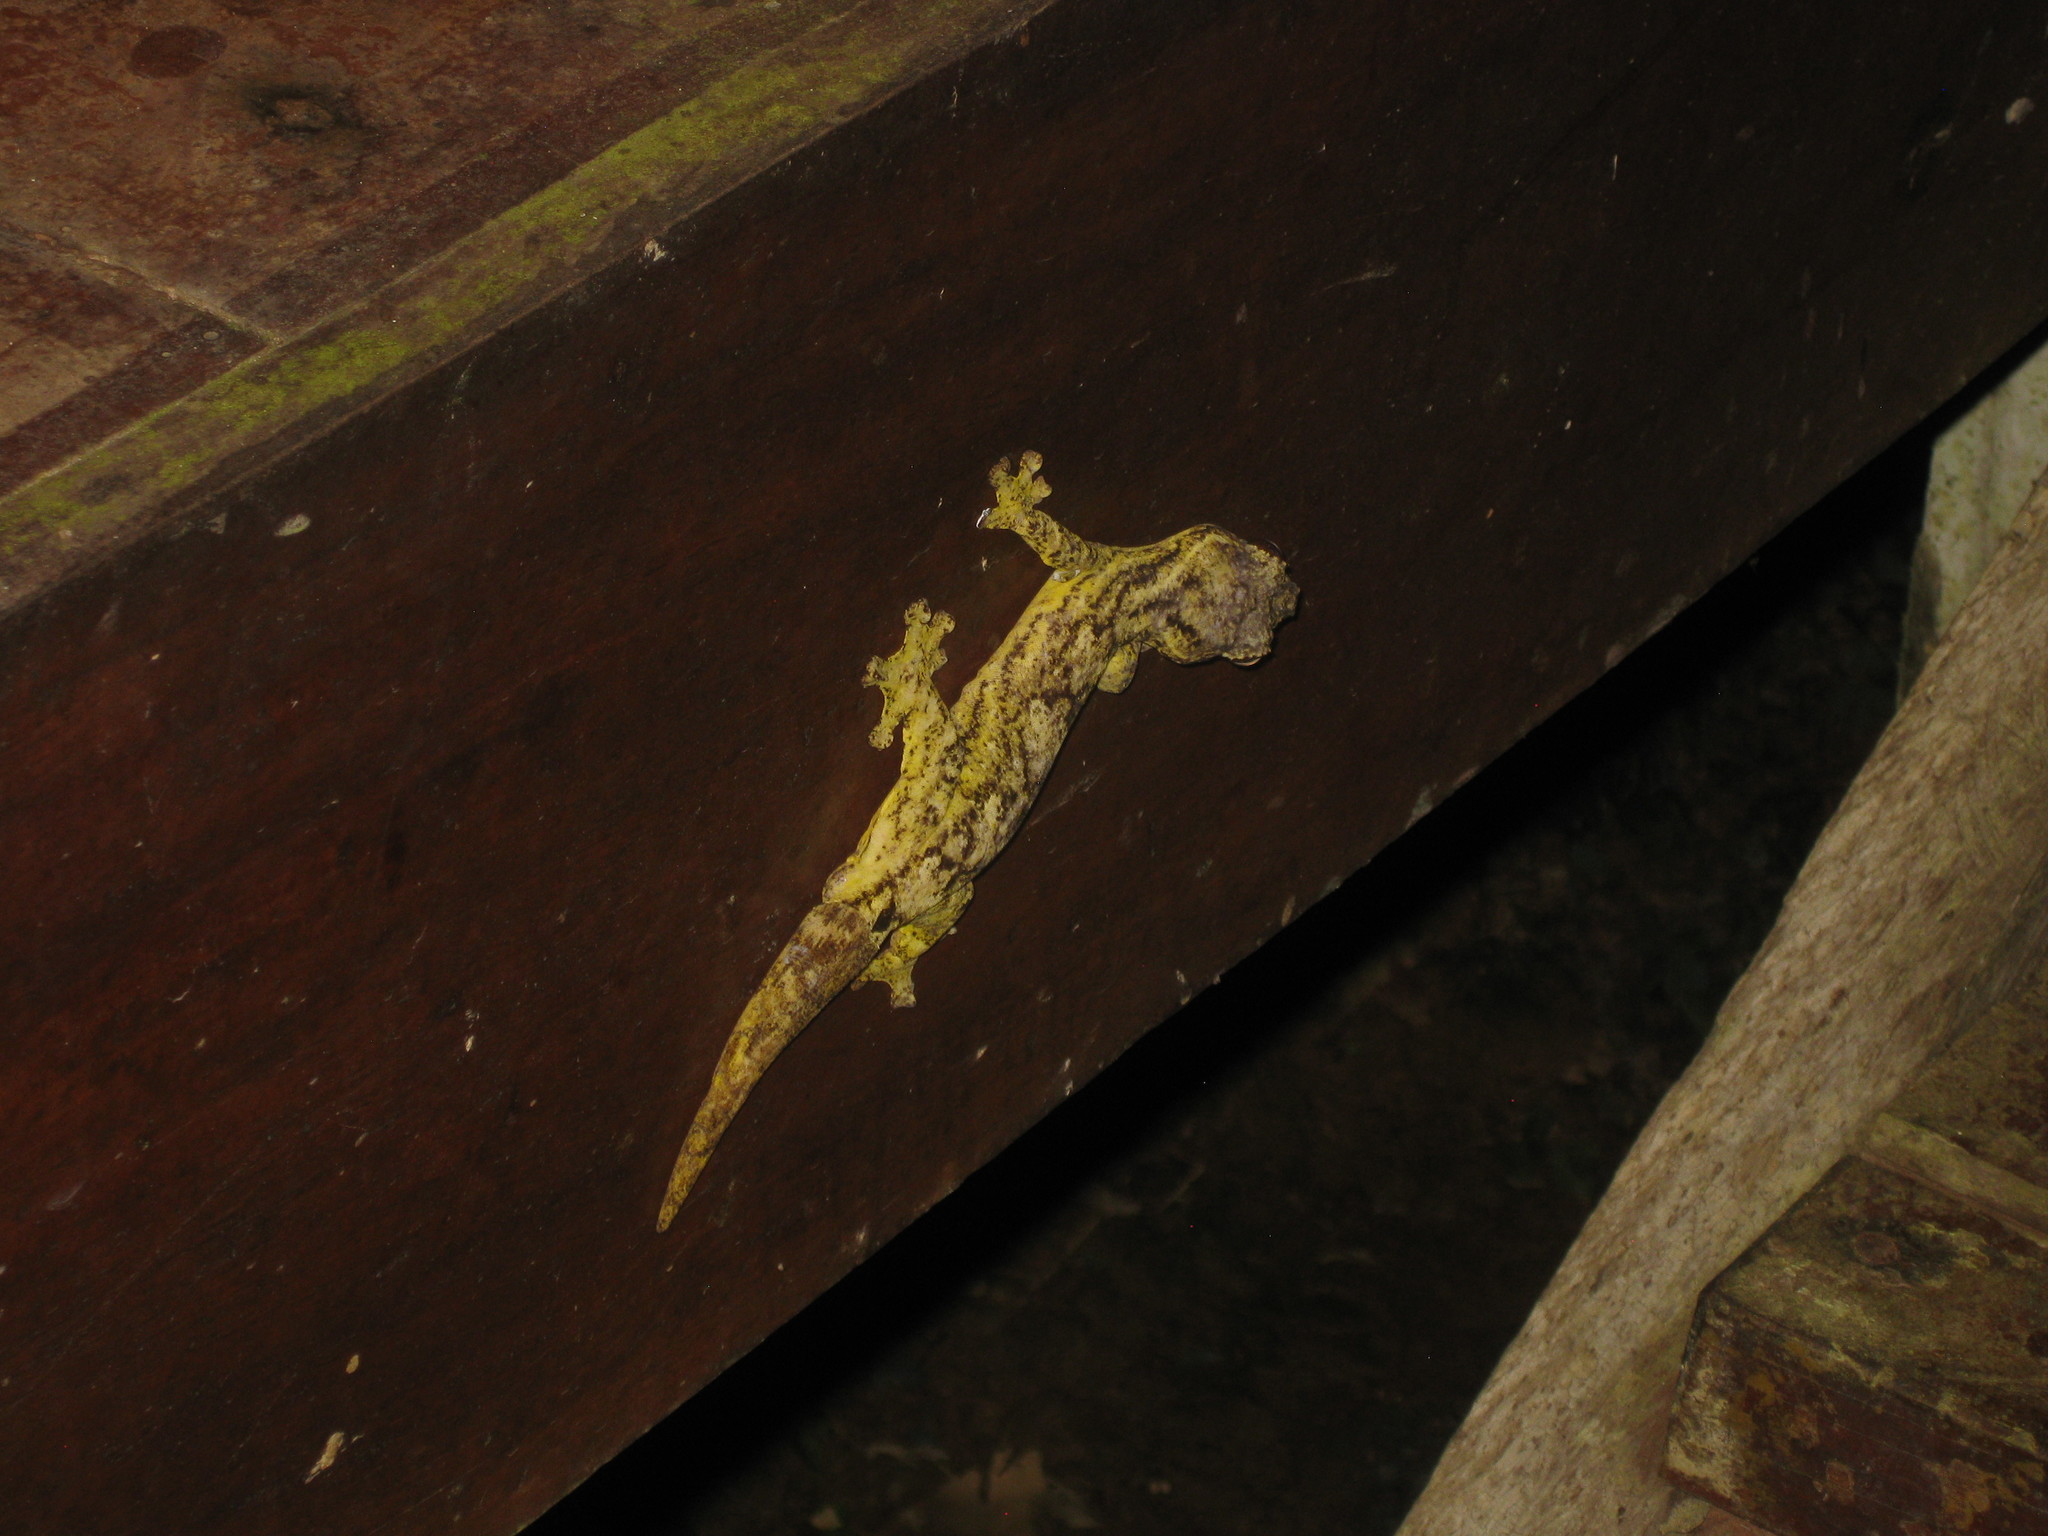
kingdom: Animalia
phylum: Chordata
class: Squamata
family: Phyllodactylidae
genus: Thecadactylus
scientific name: Thecadactylus solimoensis
